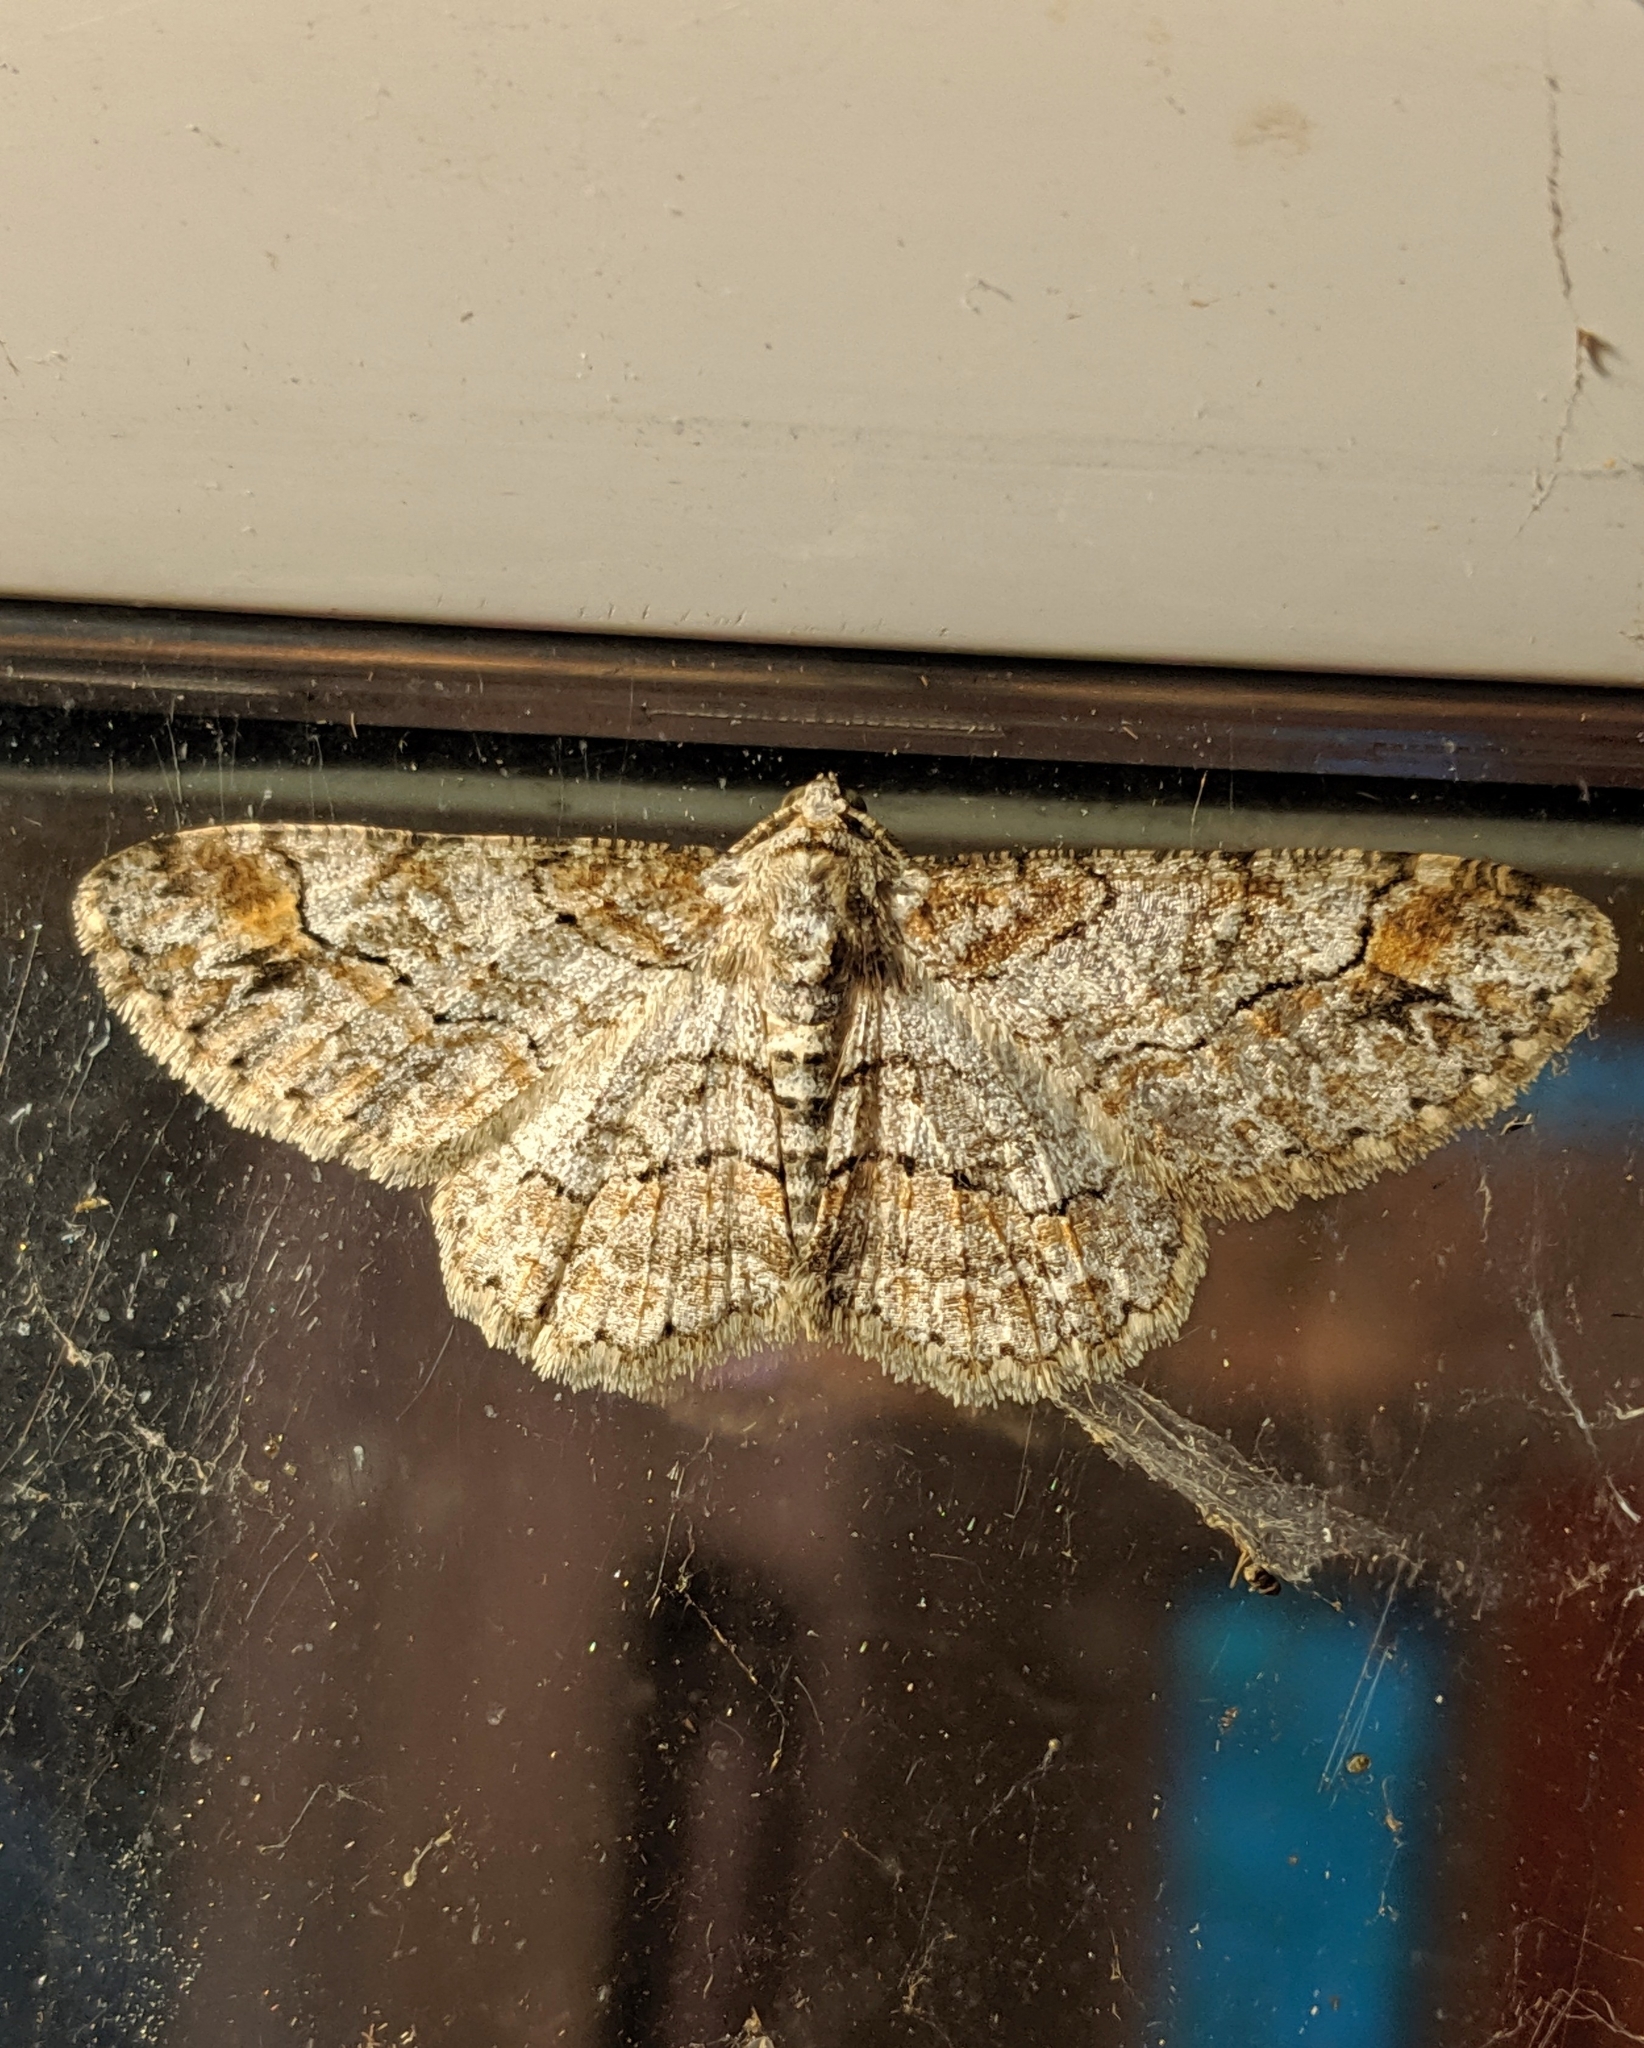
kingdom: Animalia
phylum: Arthropoda
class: Insecta
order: Lepidoptera
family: Geometridae
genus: Iridopsis
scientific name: Iridopsis emasculatum
